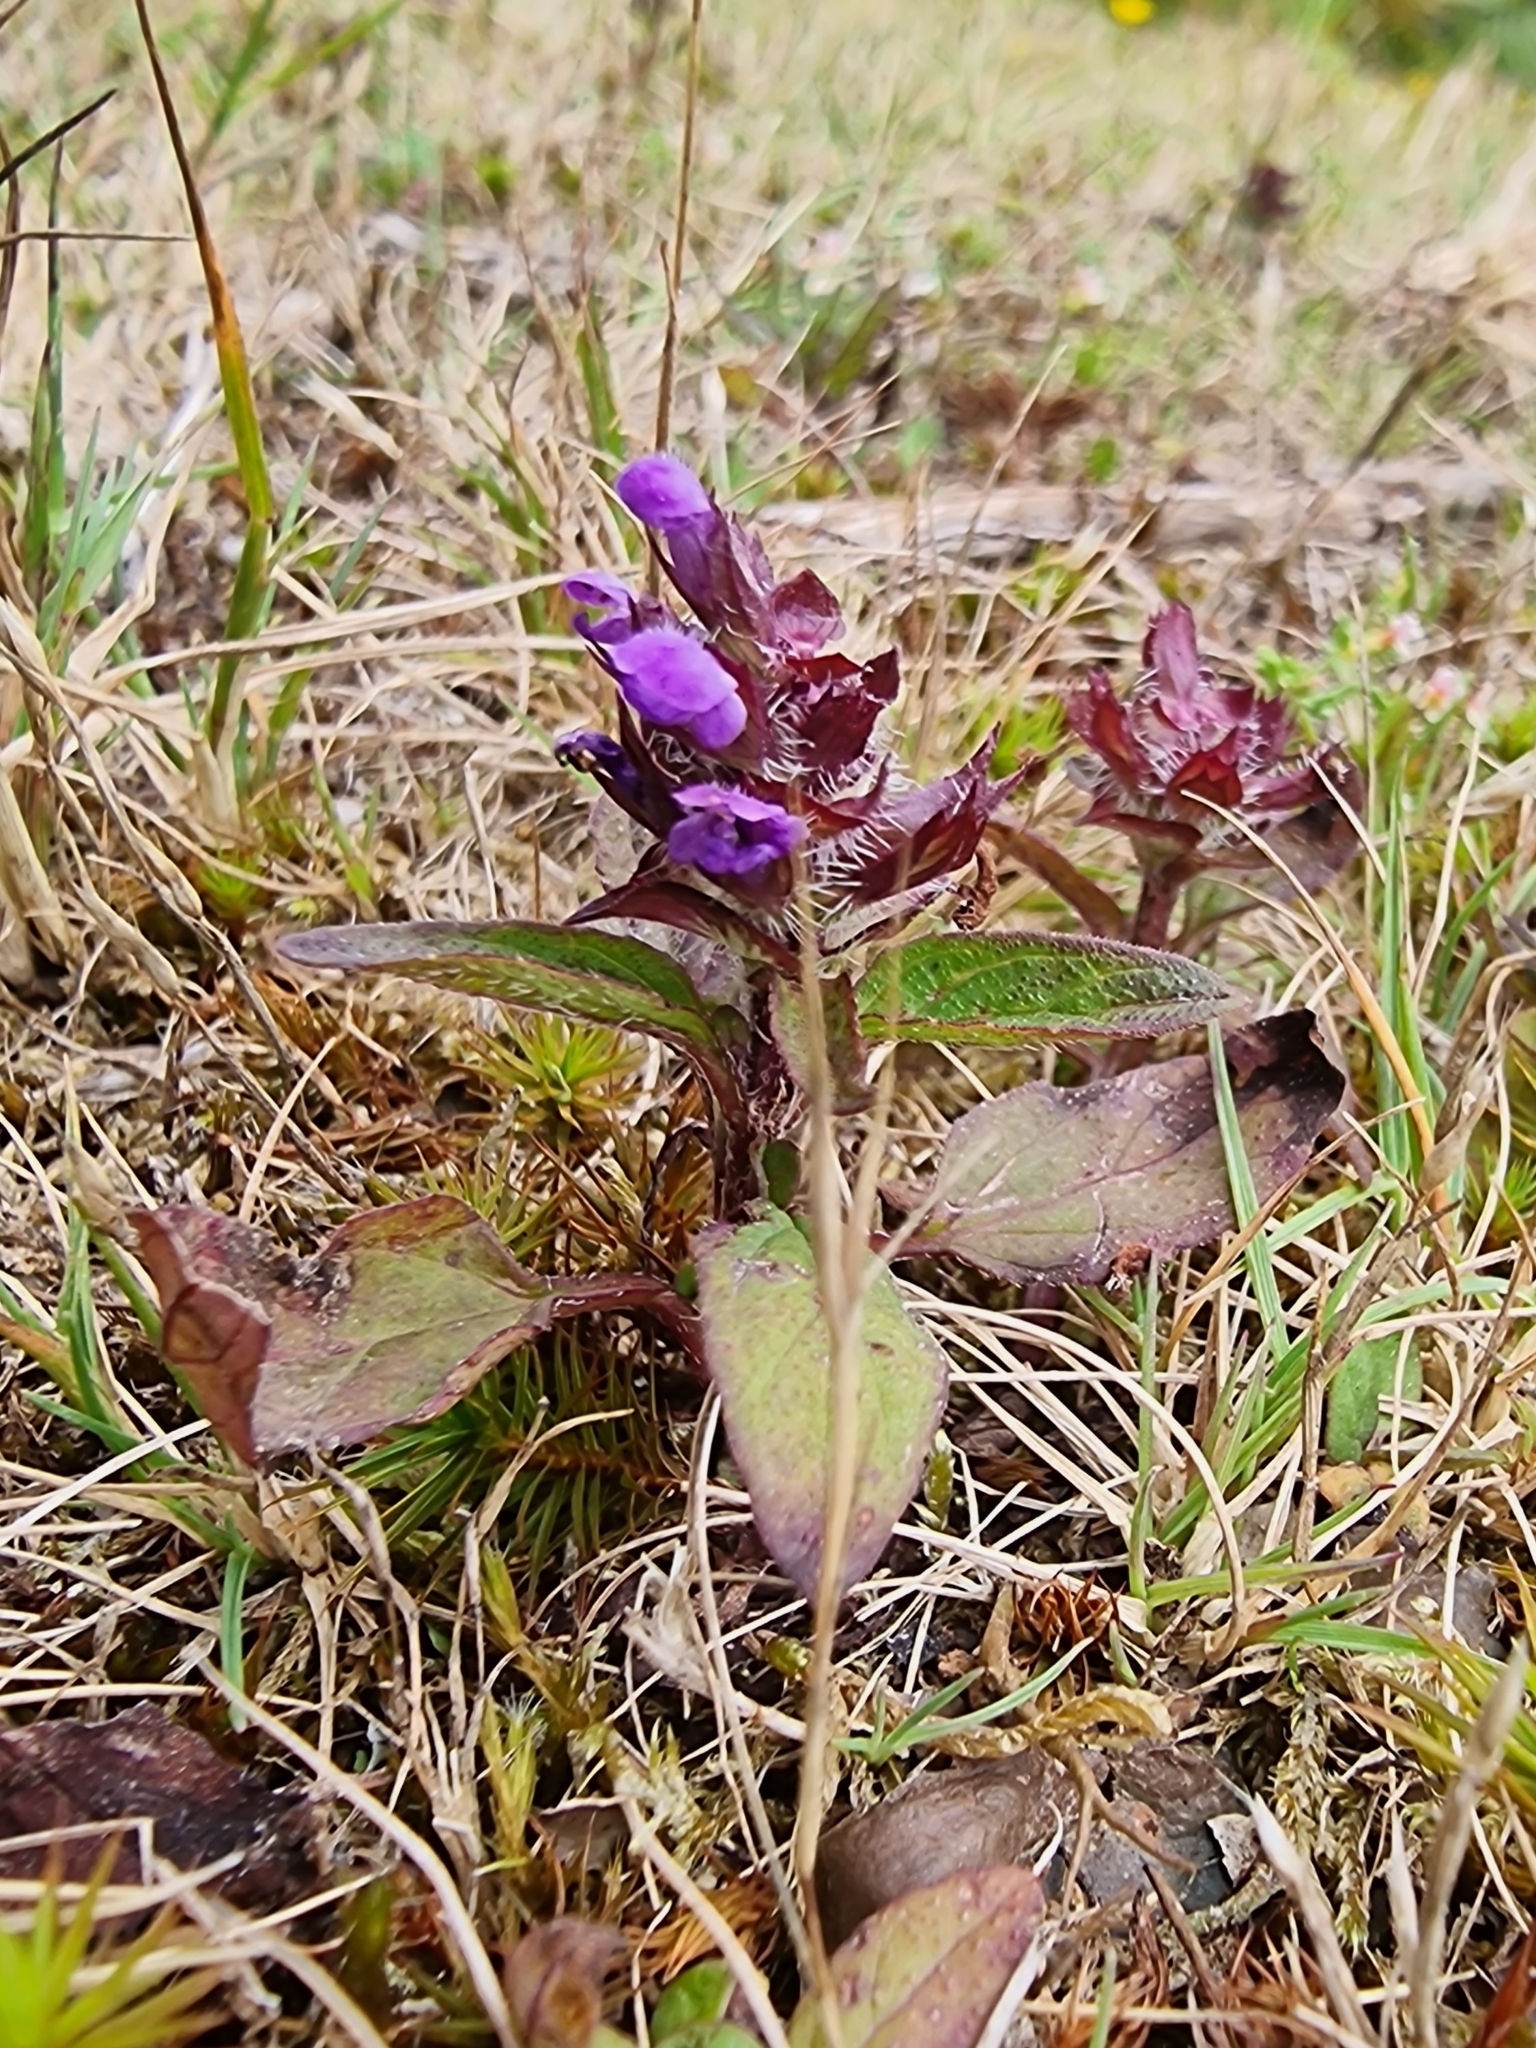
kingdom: Plantae
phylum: Tracheophyta
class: Magnoliopsida
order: Lamiales
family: Lamiaceae
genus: Prunella
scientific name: Prunella vulgaris
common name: Heal-all
